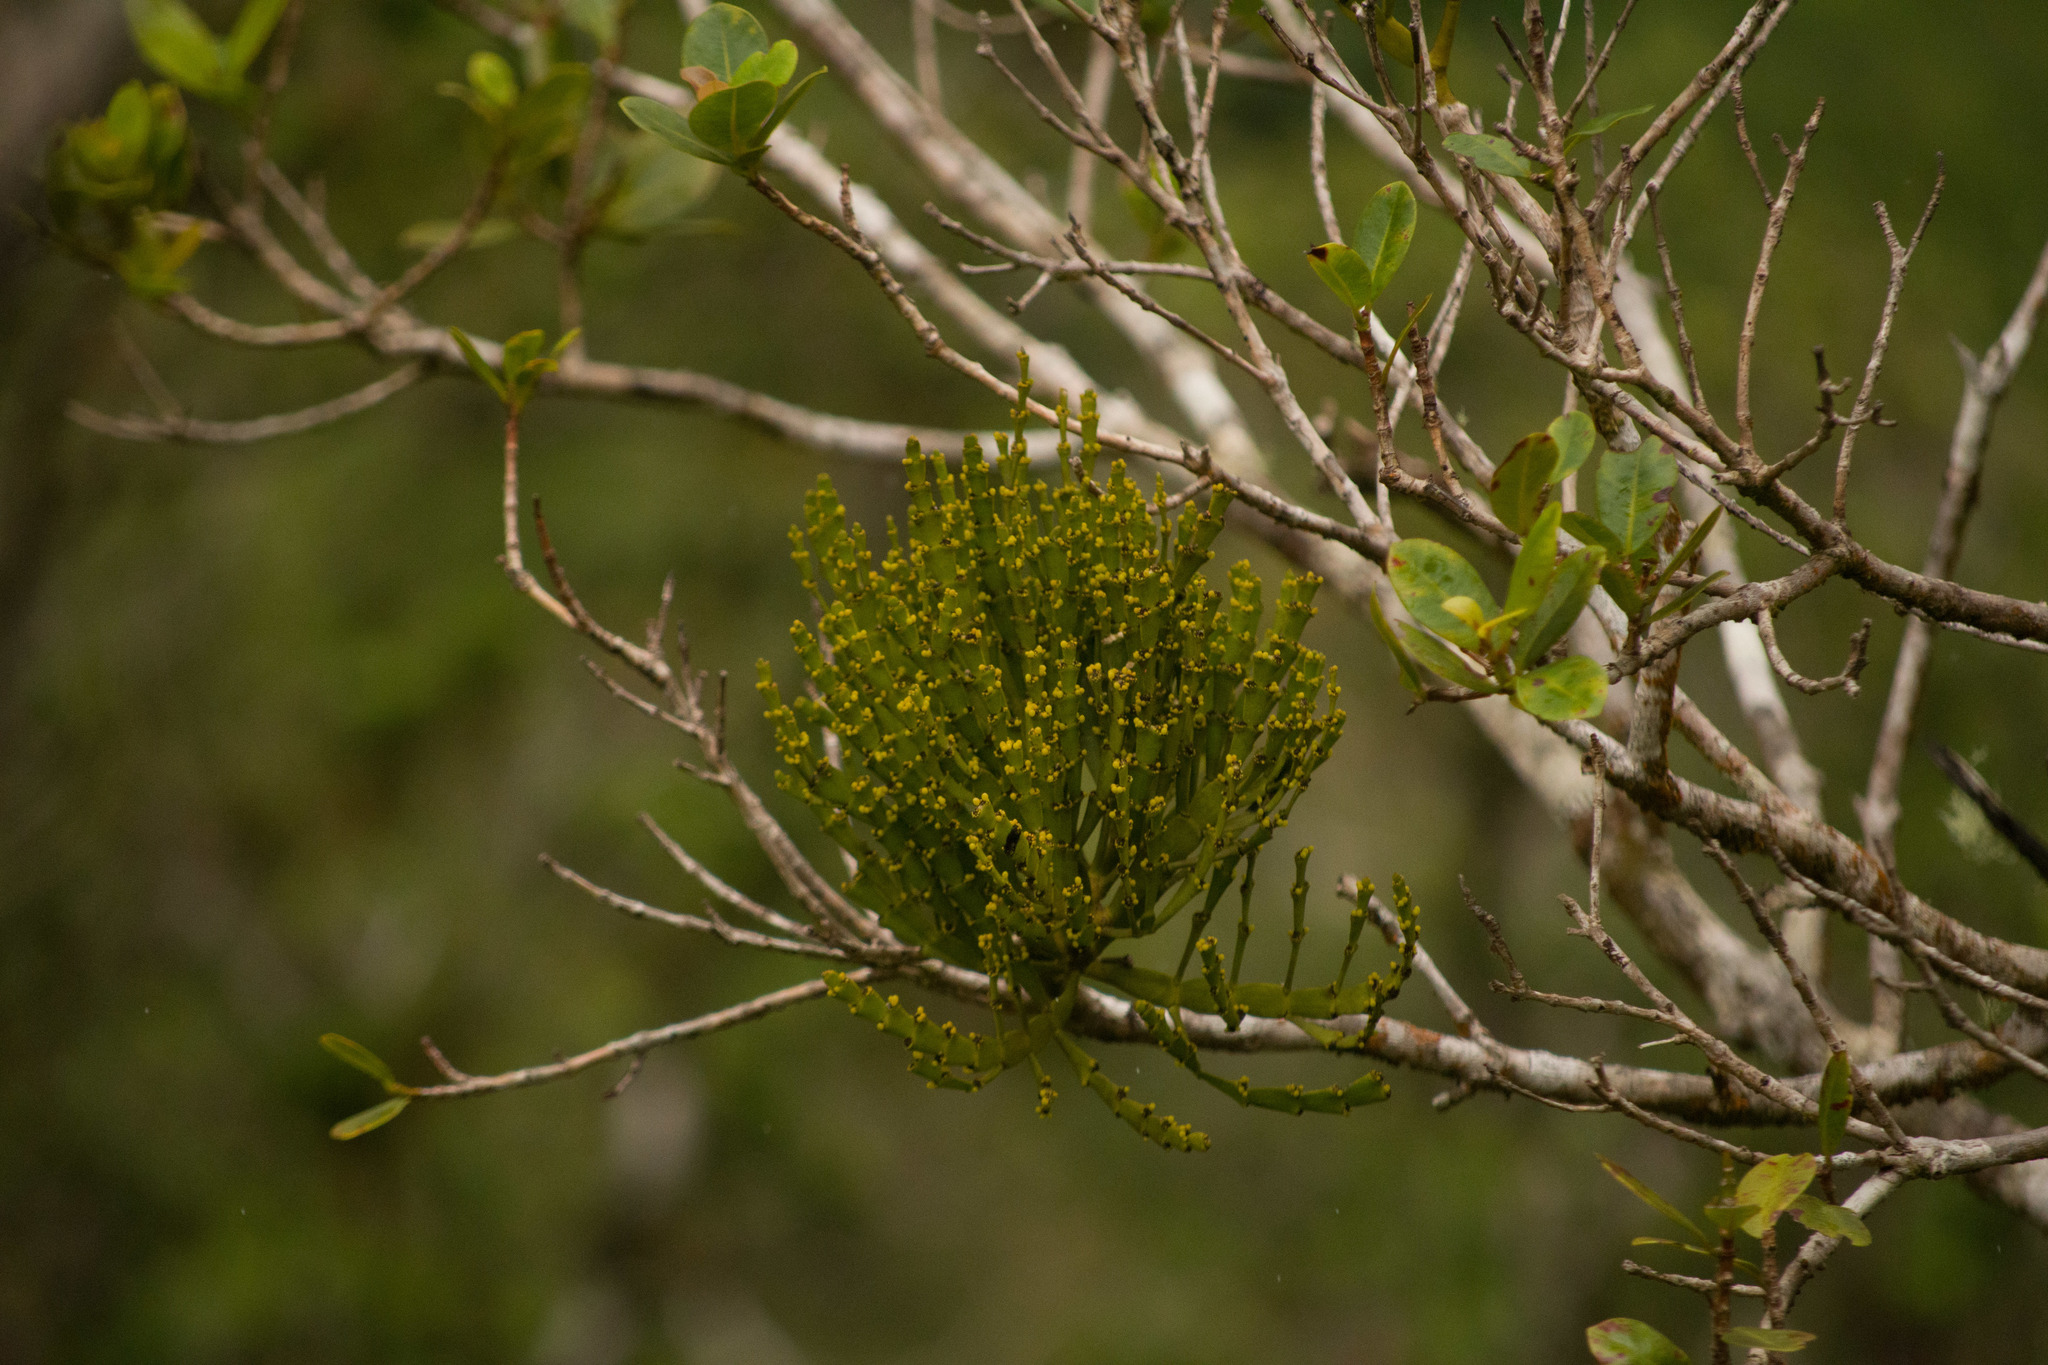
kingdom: Plantae
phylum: Tracheophyta
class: Magnoliopsida
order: Santalales
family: Viscaceae
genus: Korthalsella
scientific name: Korthalsella complanata
